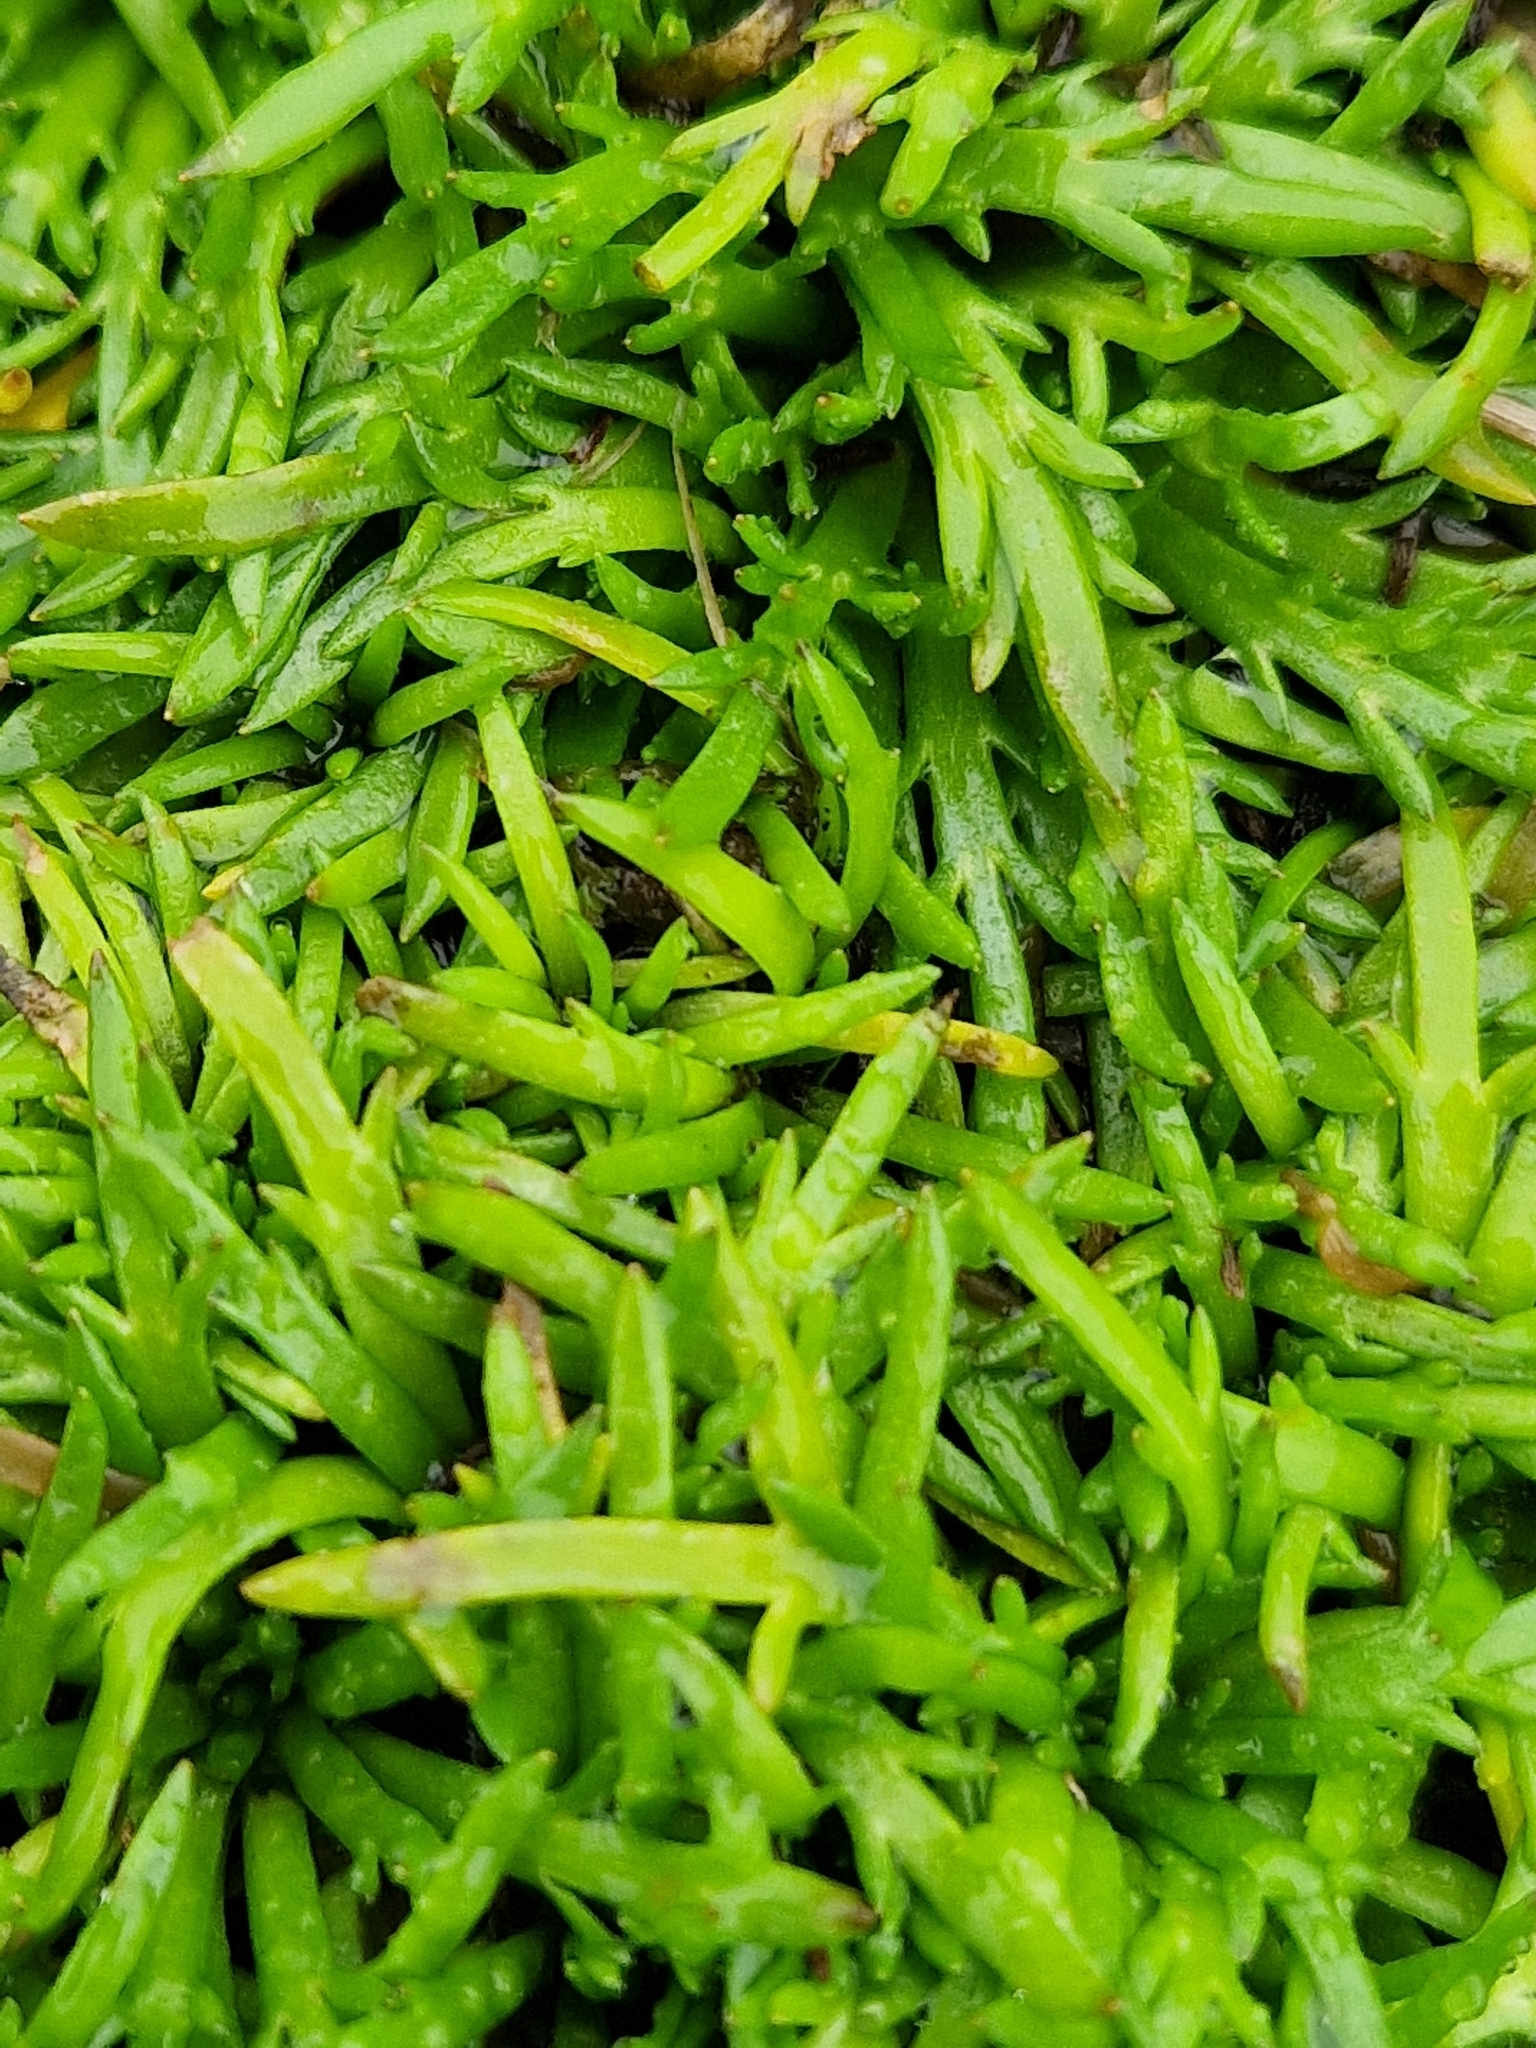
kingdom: Plantae
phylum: Tracheophyta
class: Magnoliopsida
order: Lamiales
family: Plantaginaceae
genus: Plantago
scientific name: Plantago coronopus
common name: Buck's-horn plantain
